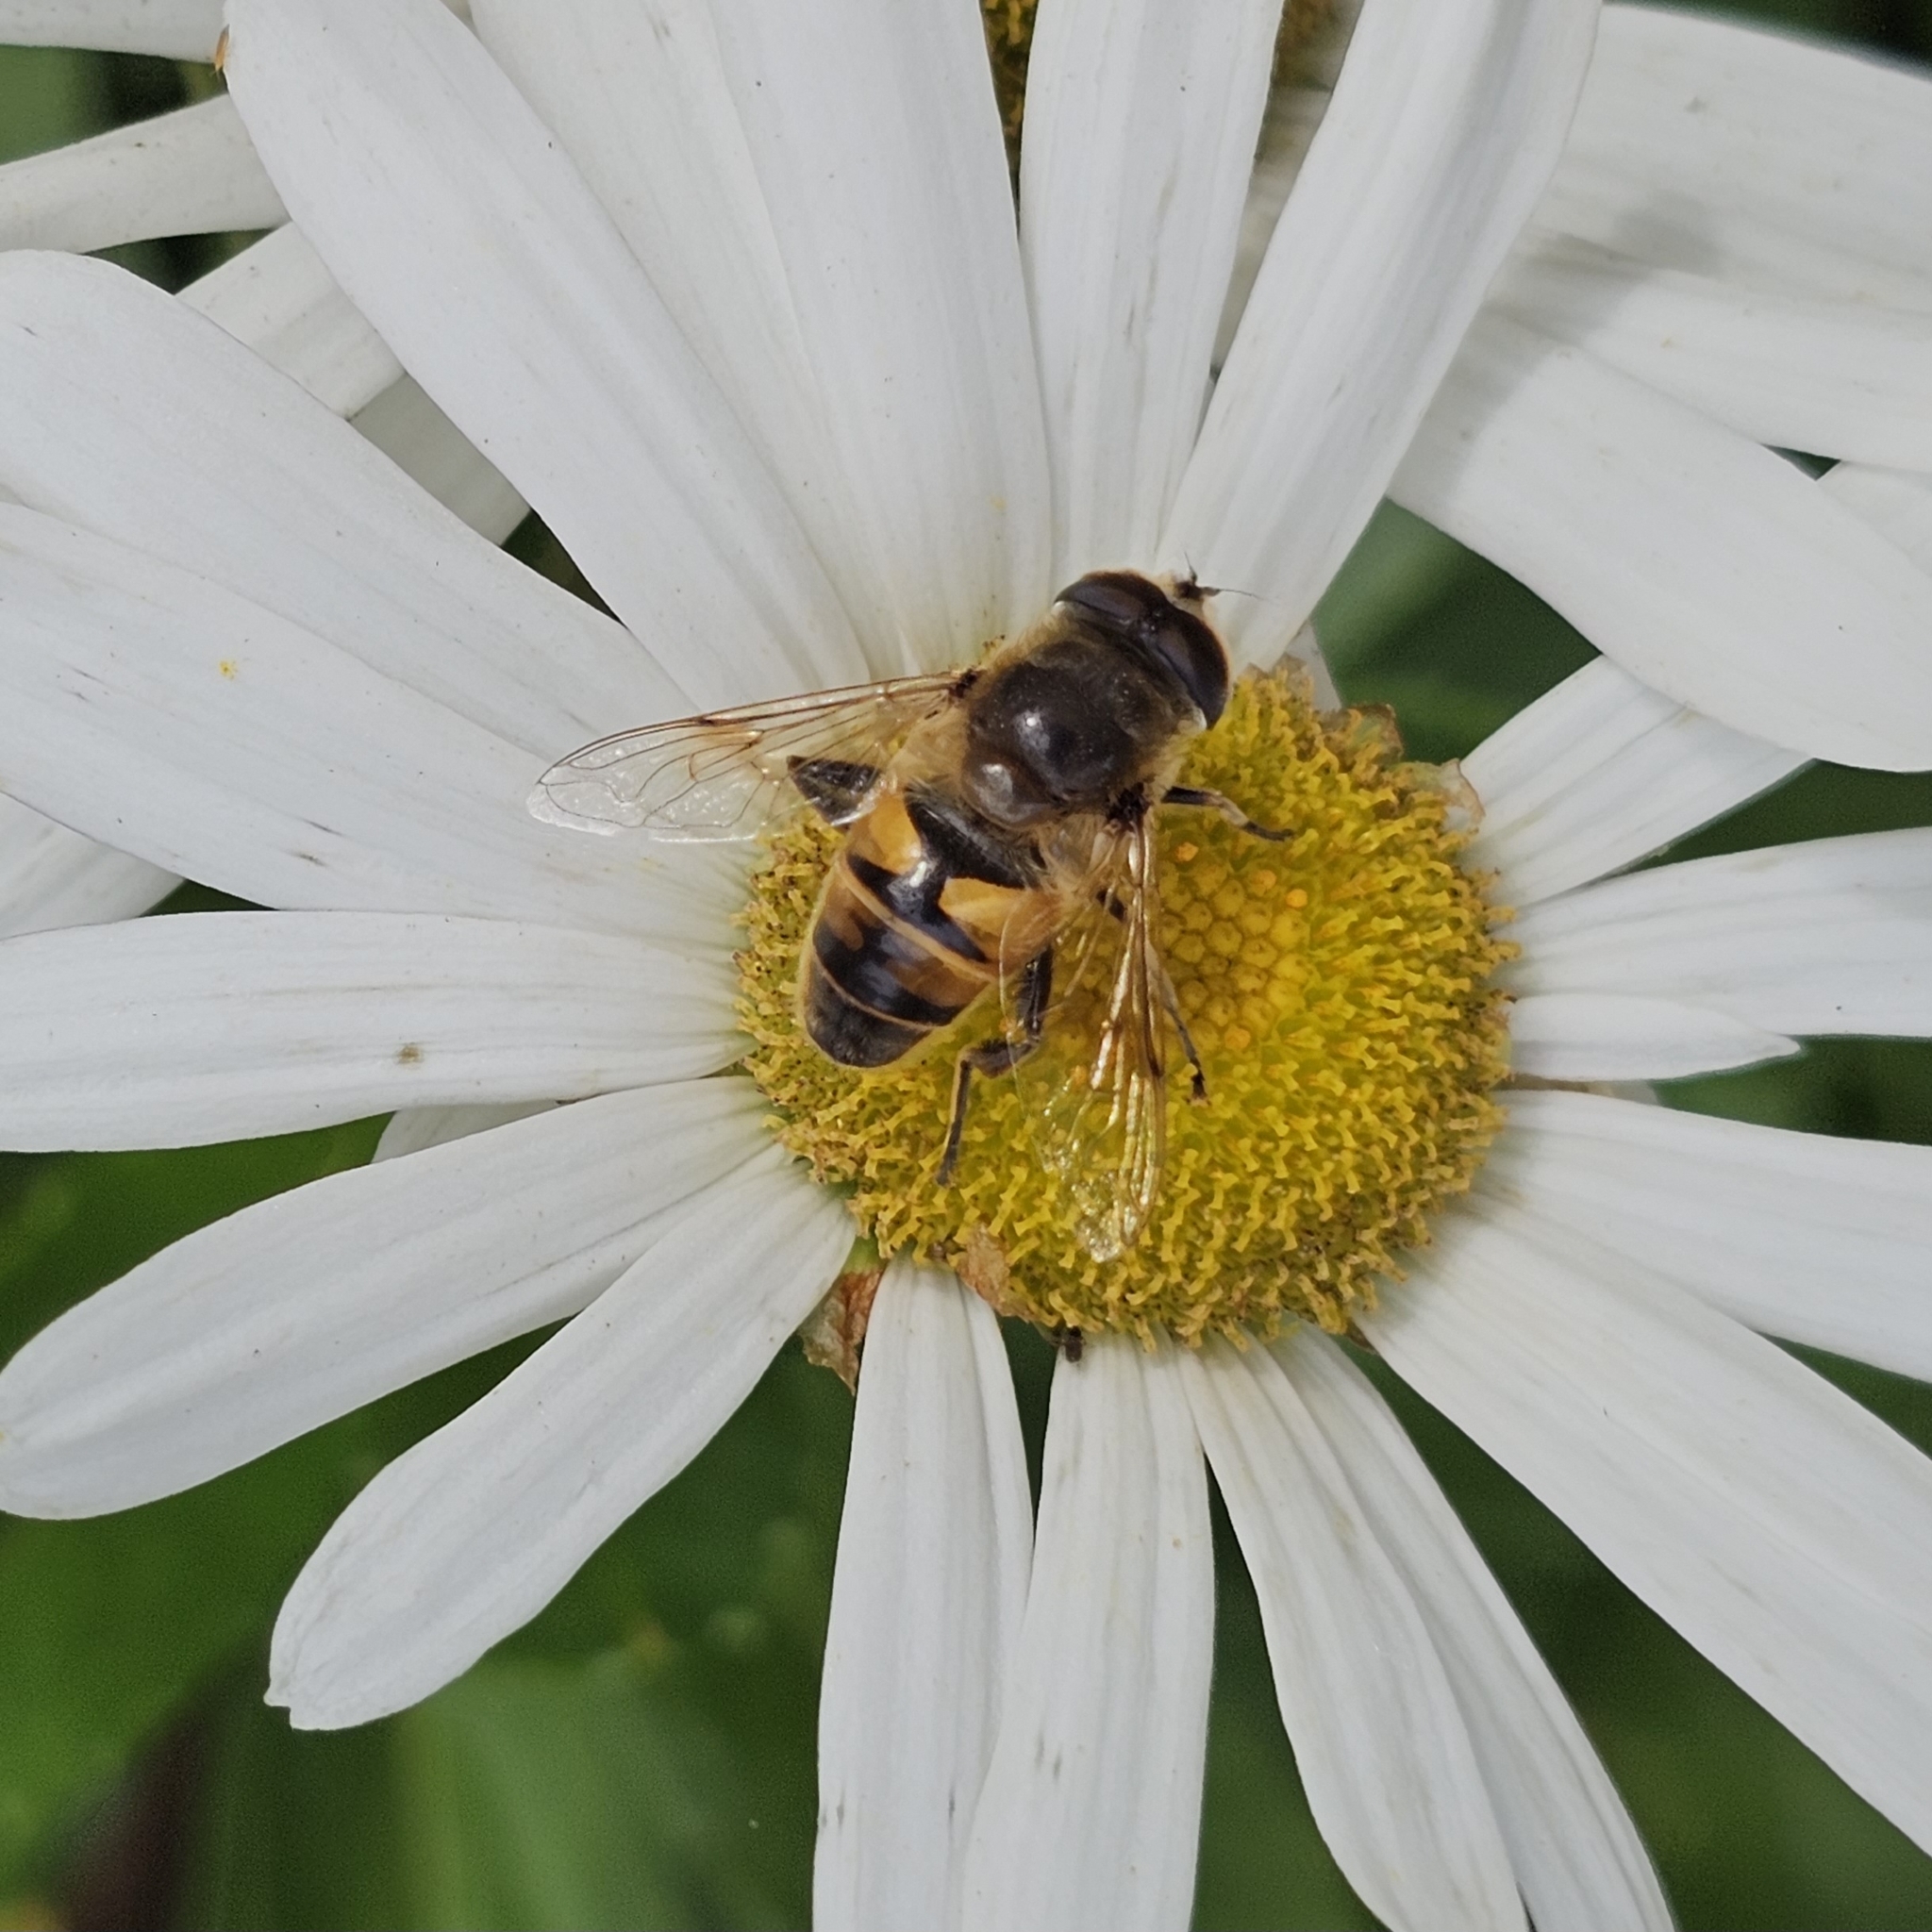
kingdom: Animalia
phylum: Arthropoda
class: Insecta
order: Diptera
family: Syrphidae
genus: Eristalis
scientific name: Eristalis tenax
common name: Drone fly
